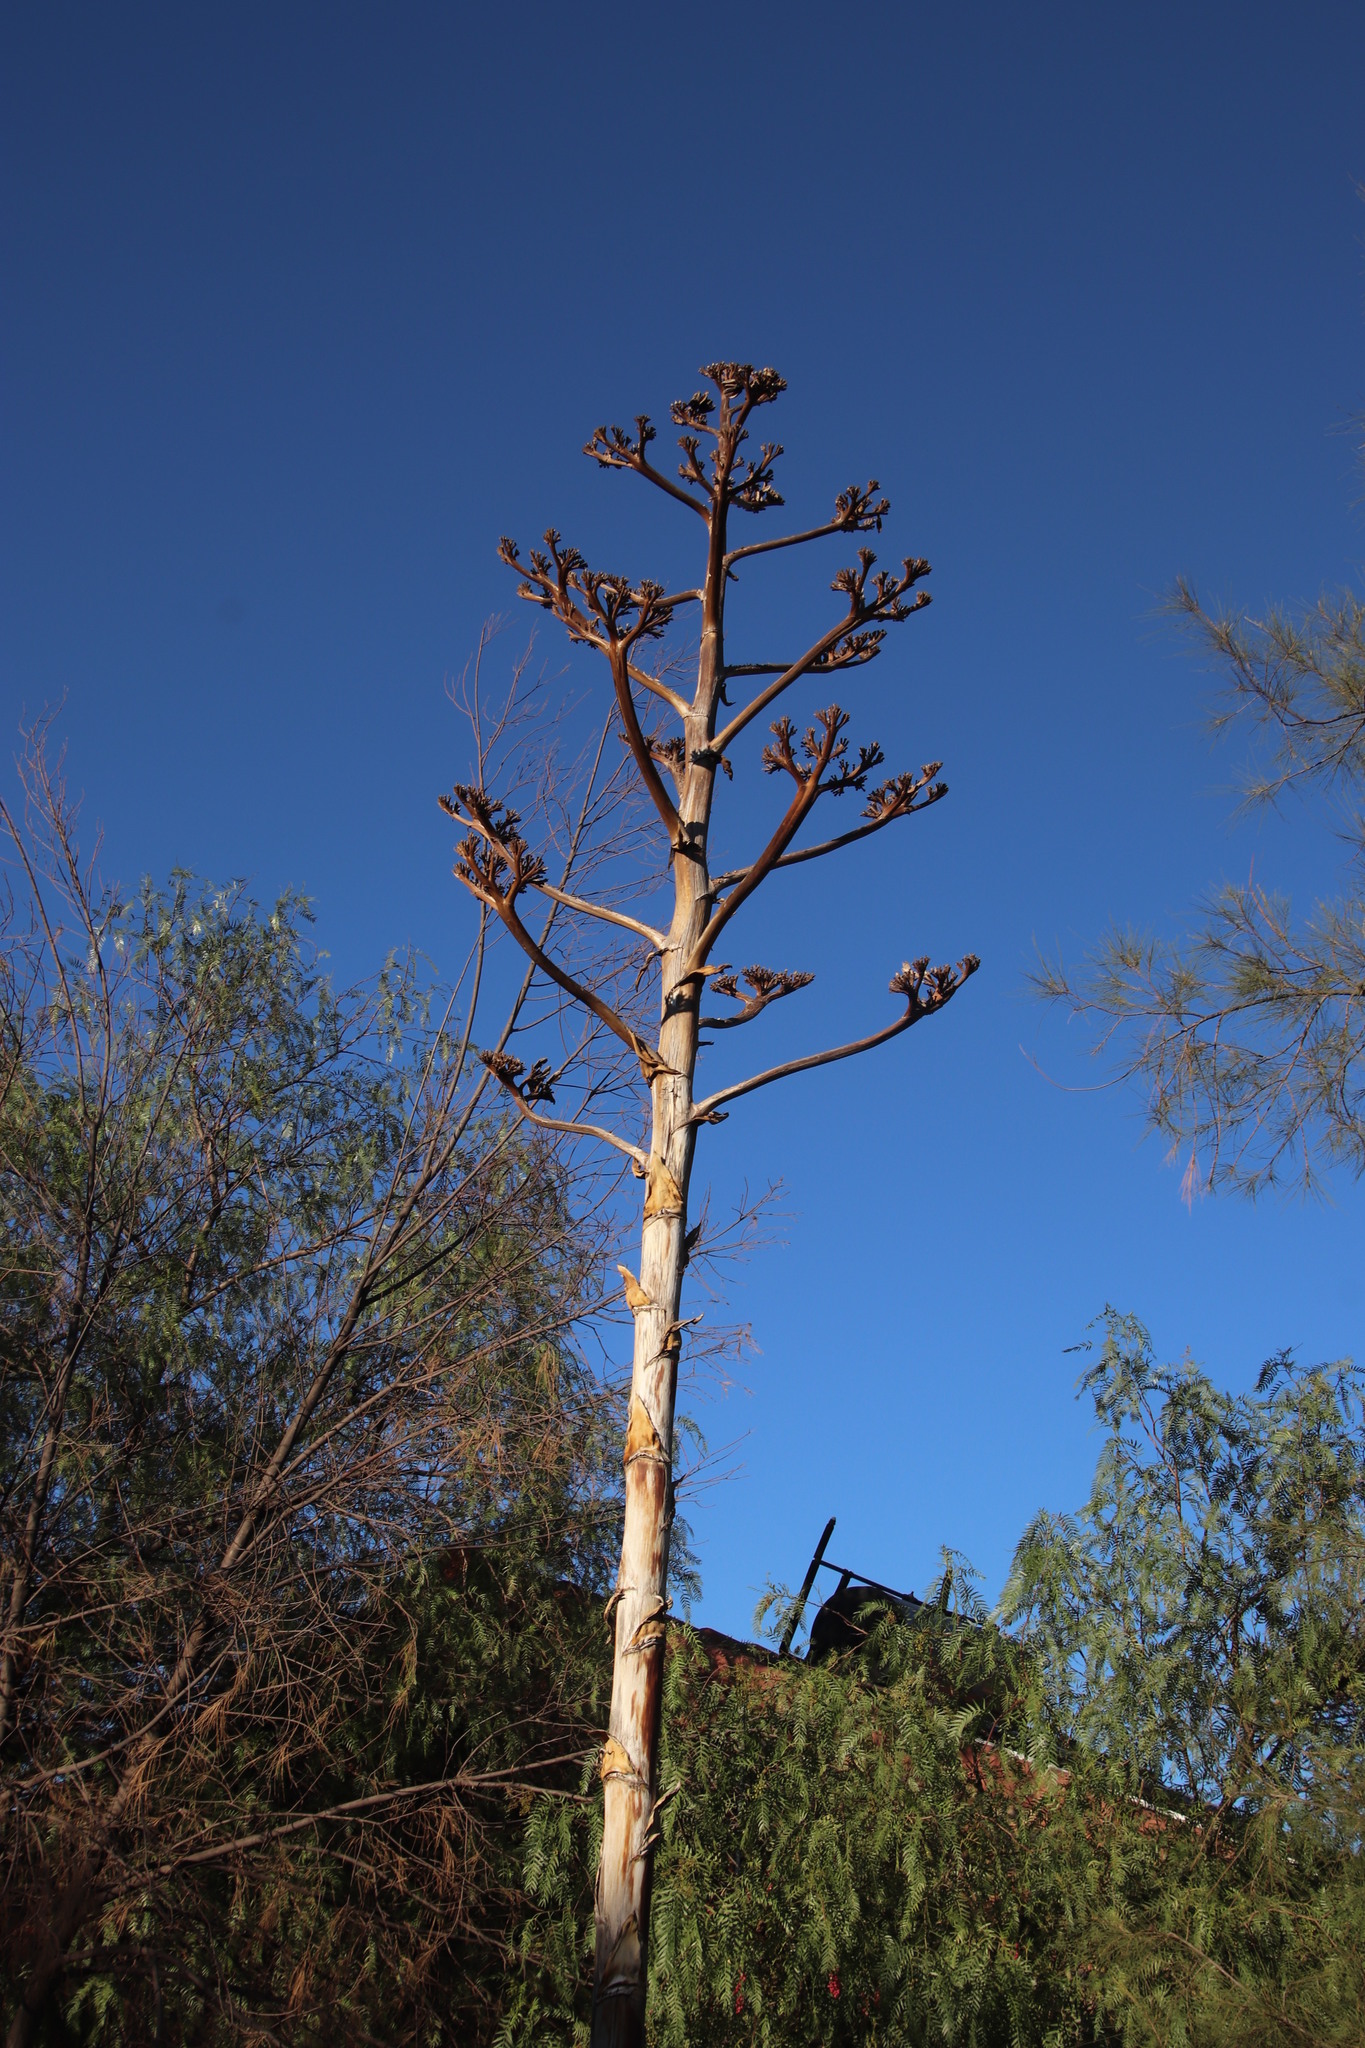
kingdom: Plantae
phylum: Tracheophyta
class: Liliopsida
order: Asparagales
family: Asparagaceae
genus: Agave
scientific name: Agave americana
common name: Centuryplant
